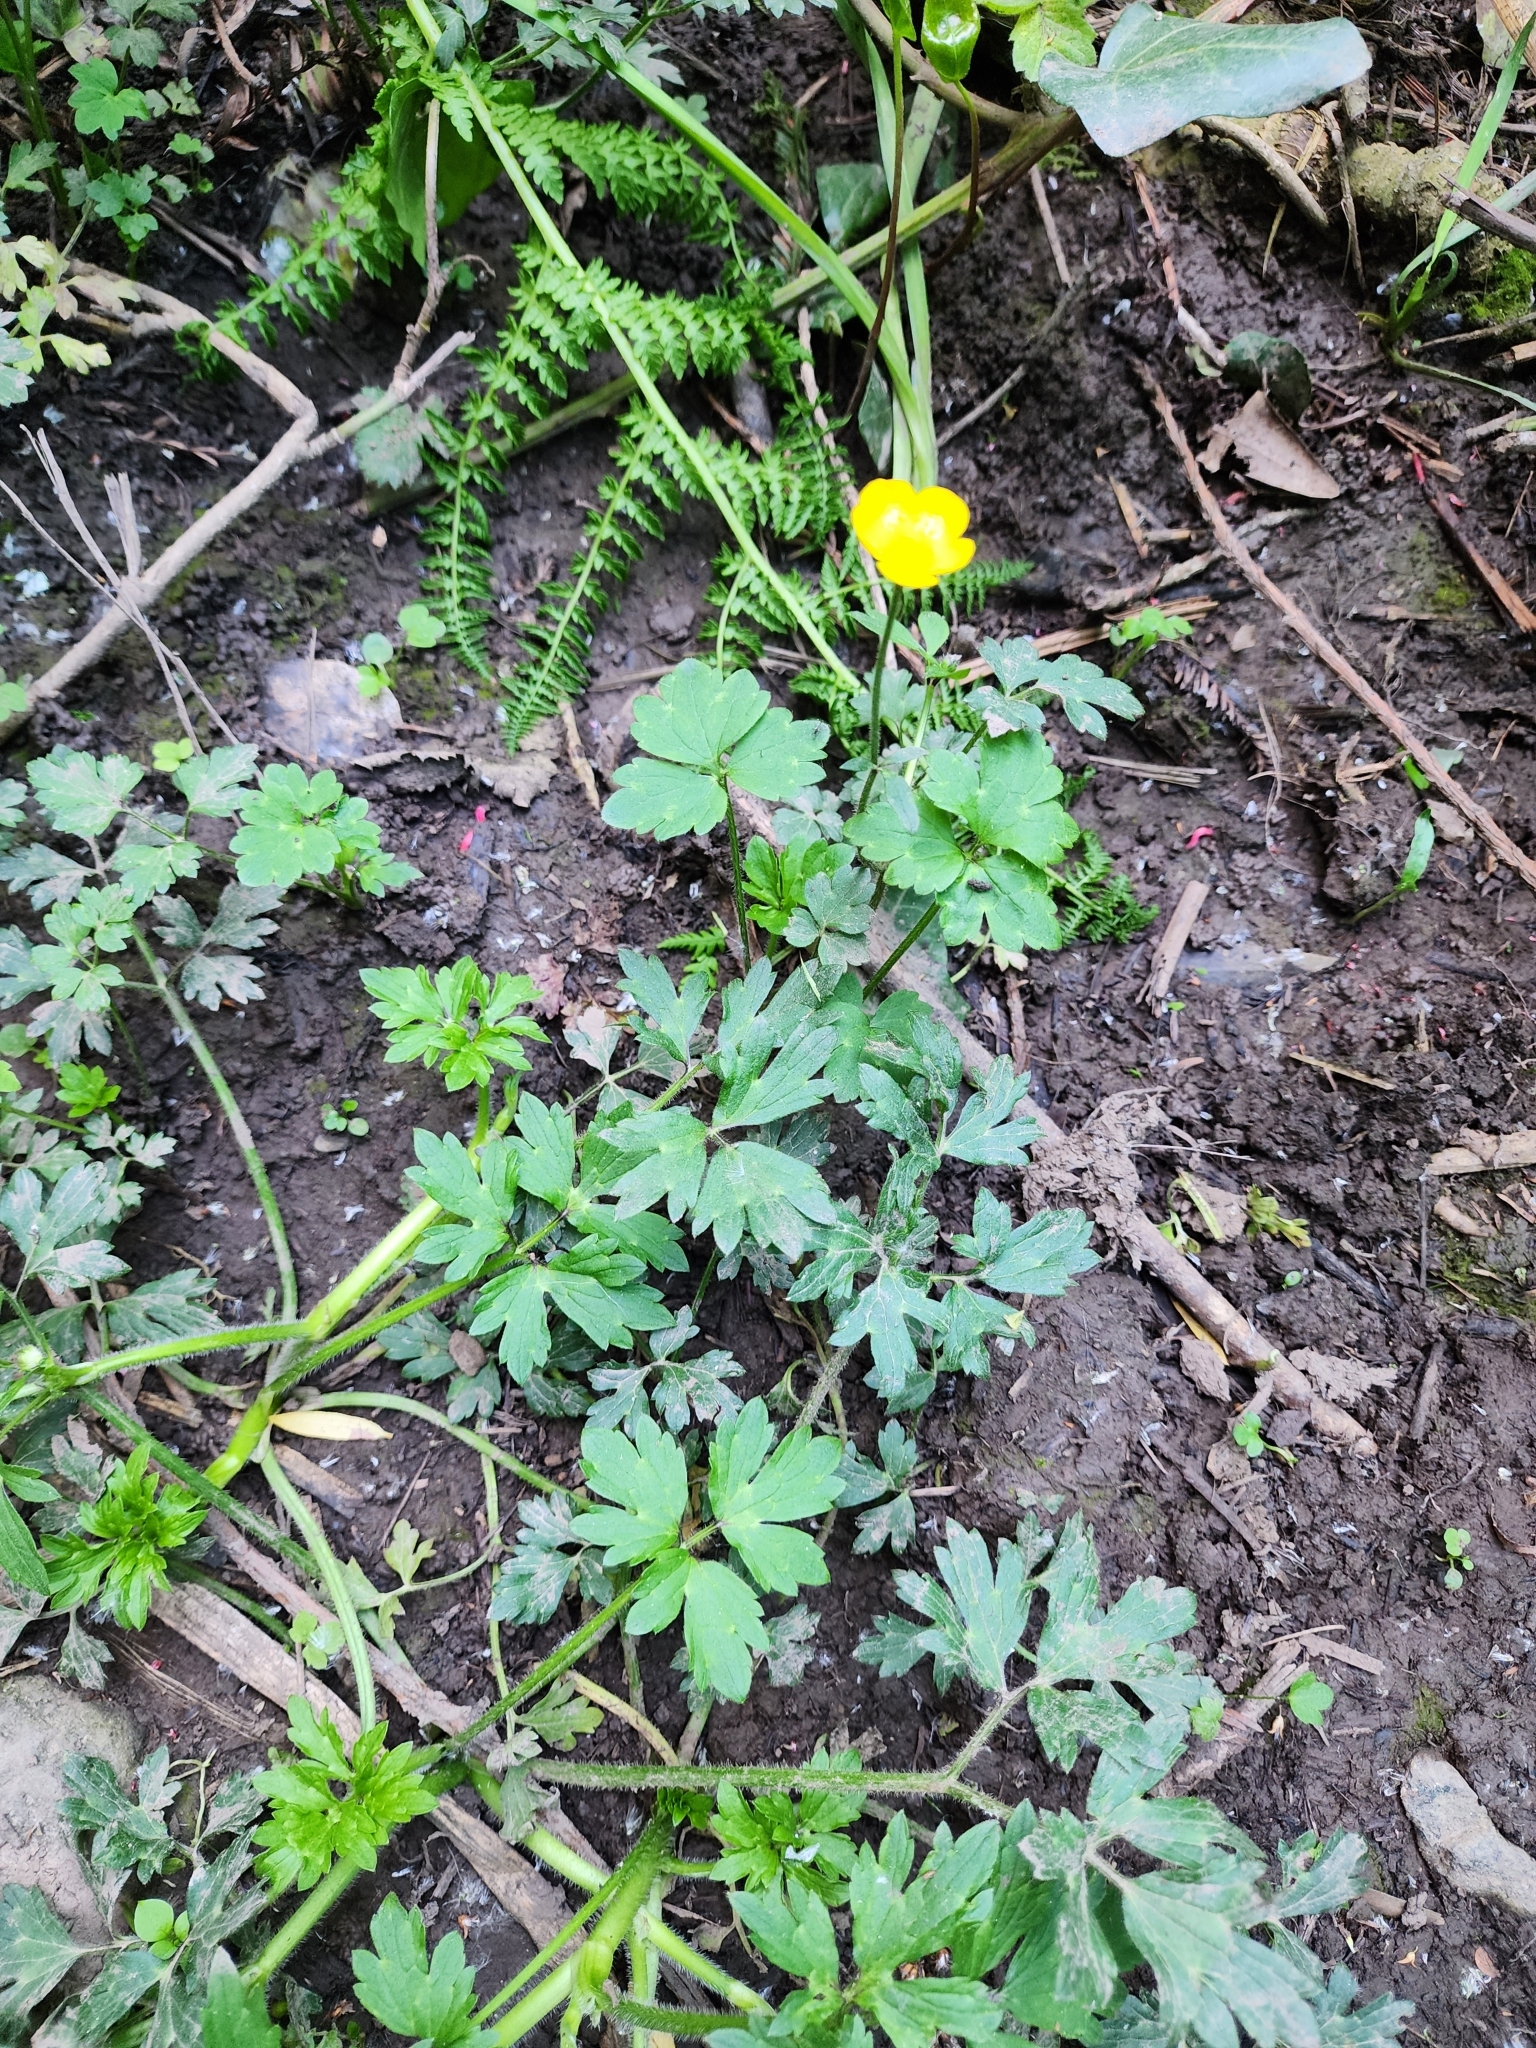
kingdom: Plantae
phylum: Tracheophyta
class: Magnoliopsida
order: Ranunculales
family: Ranunculaceae
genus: Ranunculus
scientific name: Ranunculus repens
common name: Creeping buttercup
